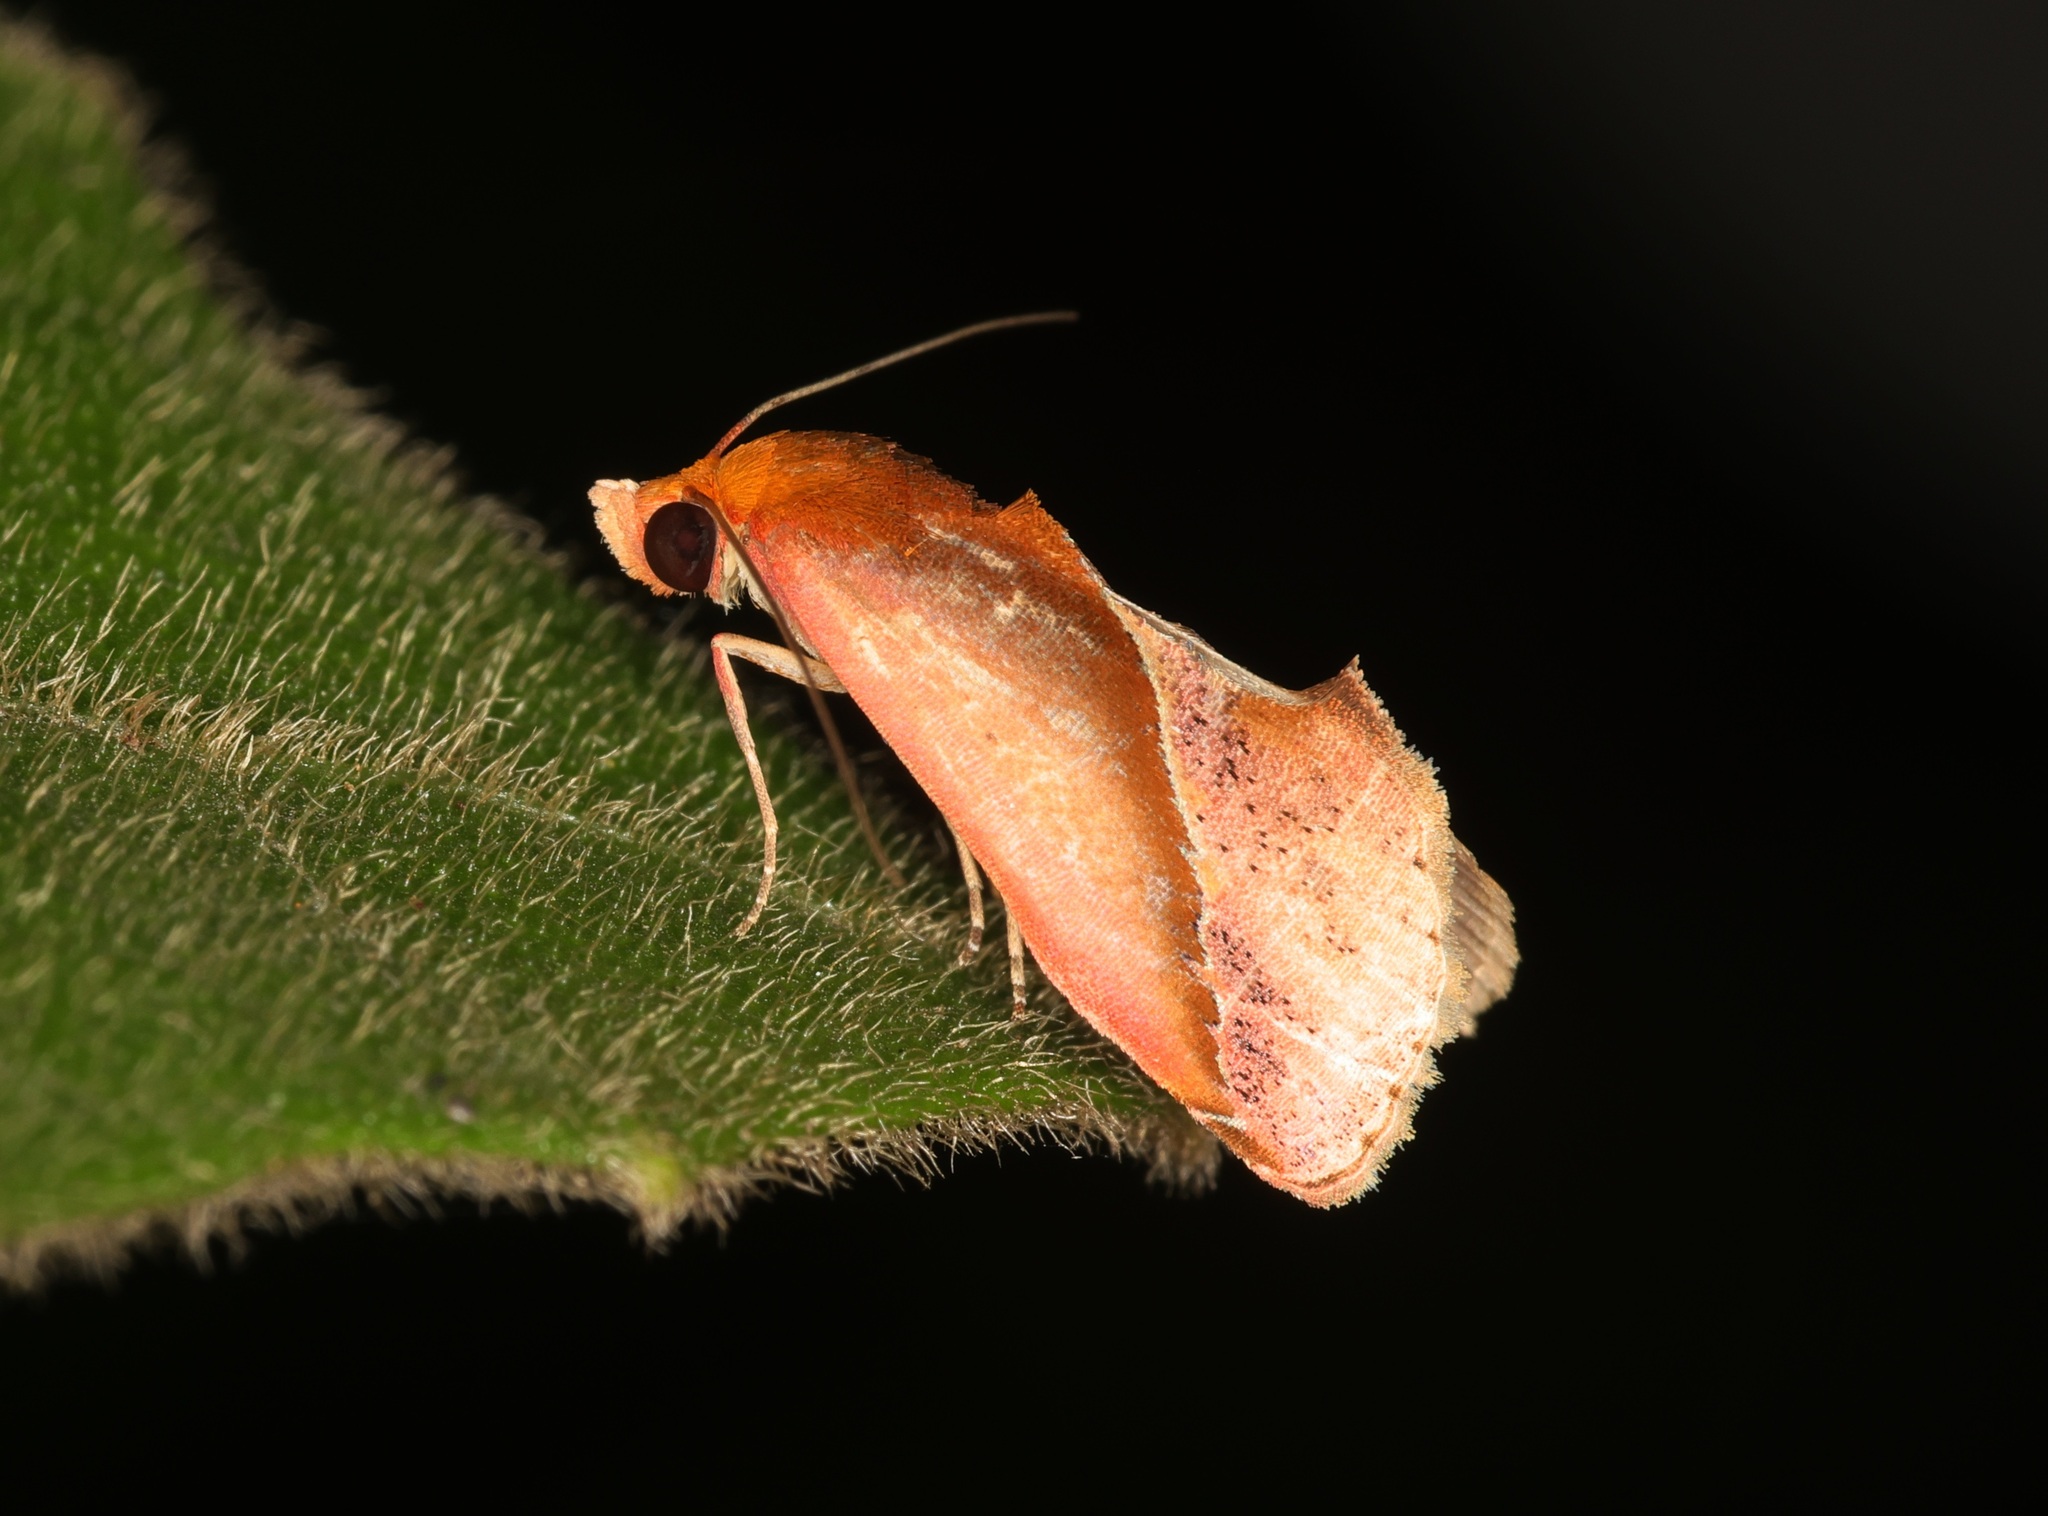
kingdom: Animalia
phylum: Arthropoda
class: Insecta
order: Lepidoptera
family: Erebidae
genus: Arsacia
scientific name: Arsacia rectalis
